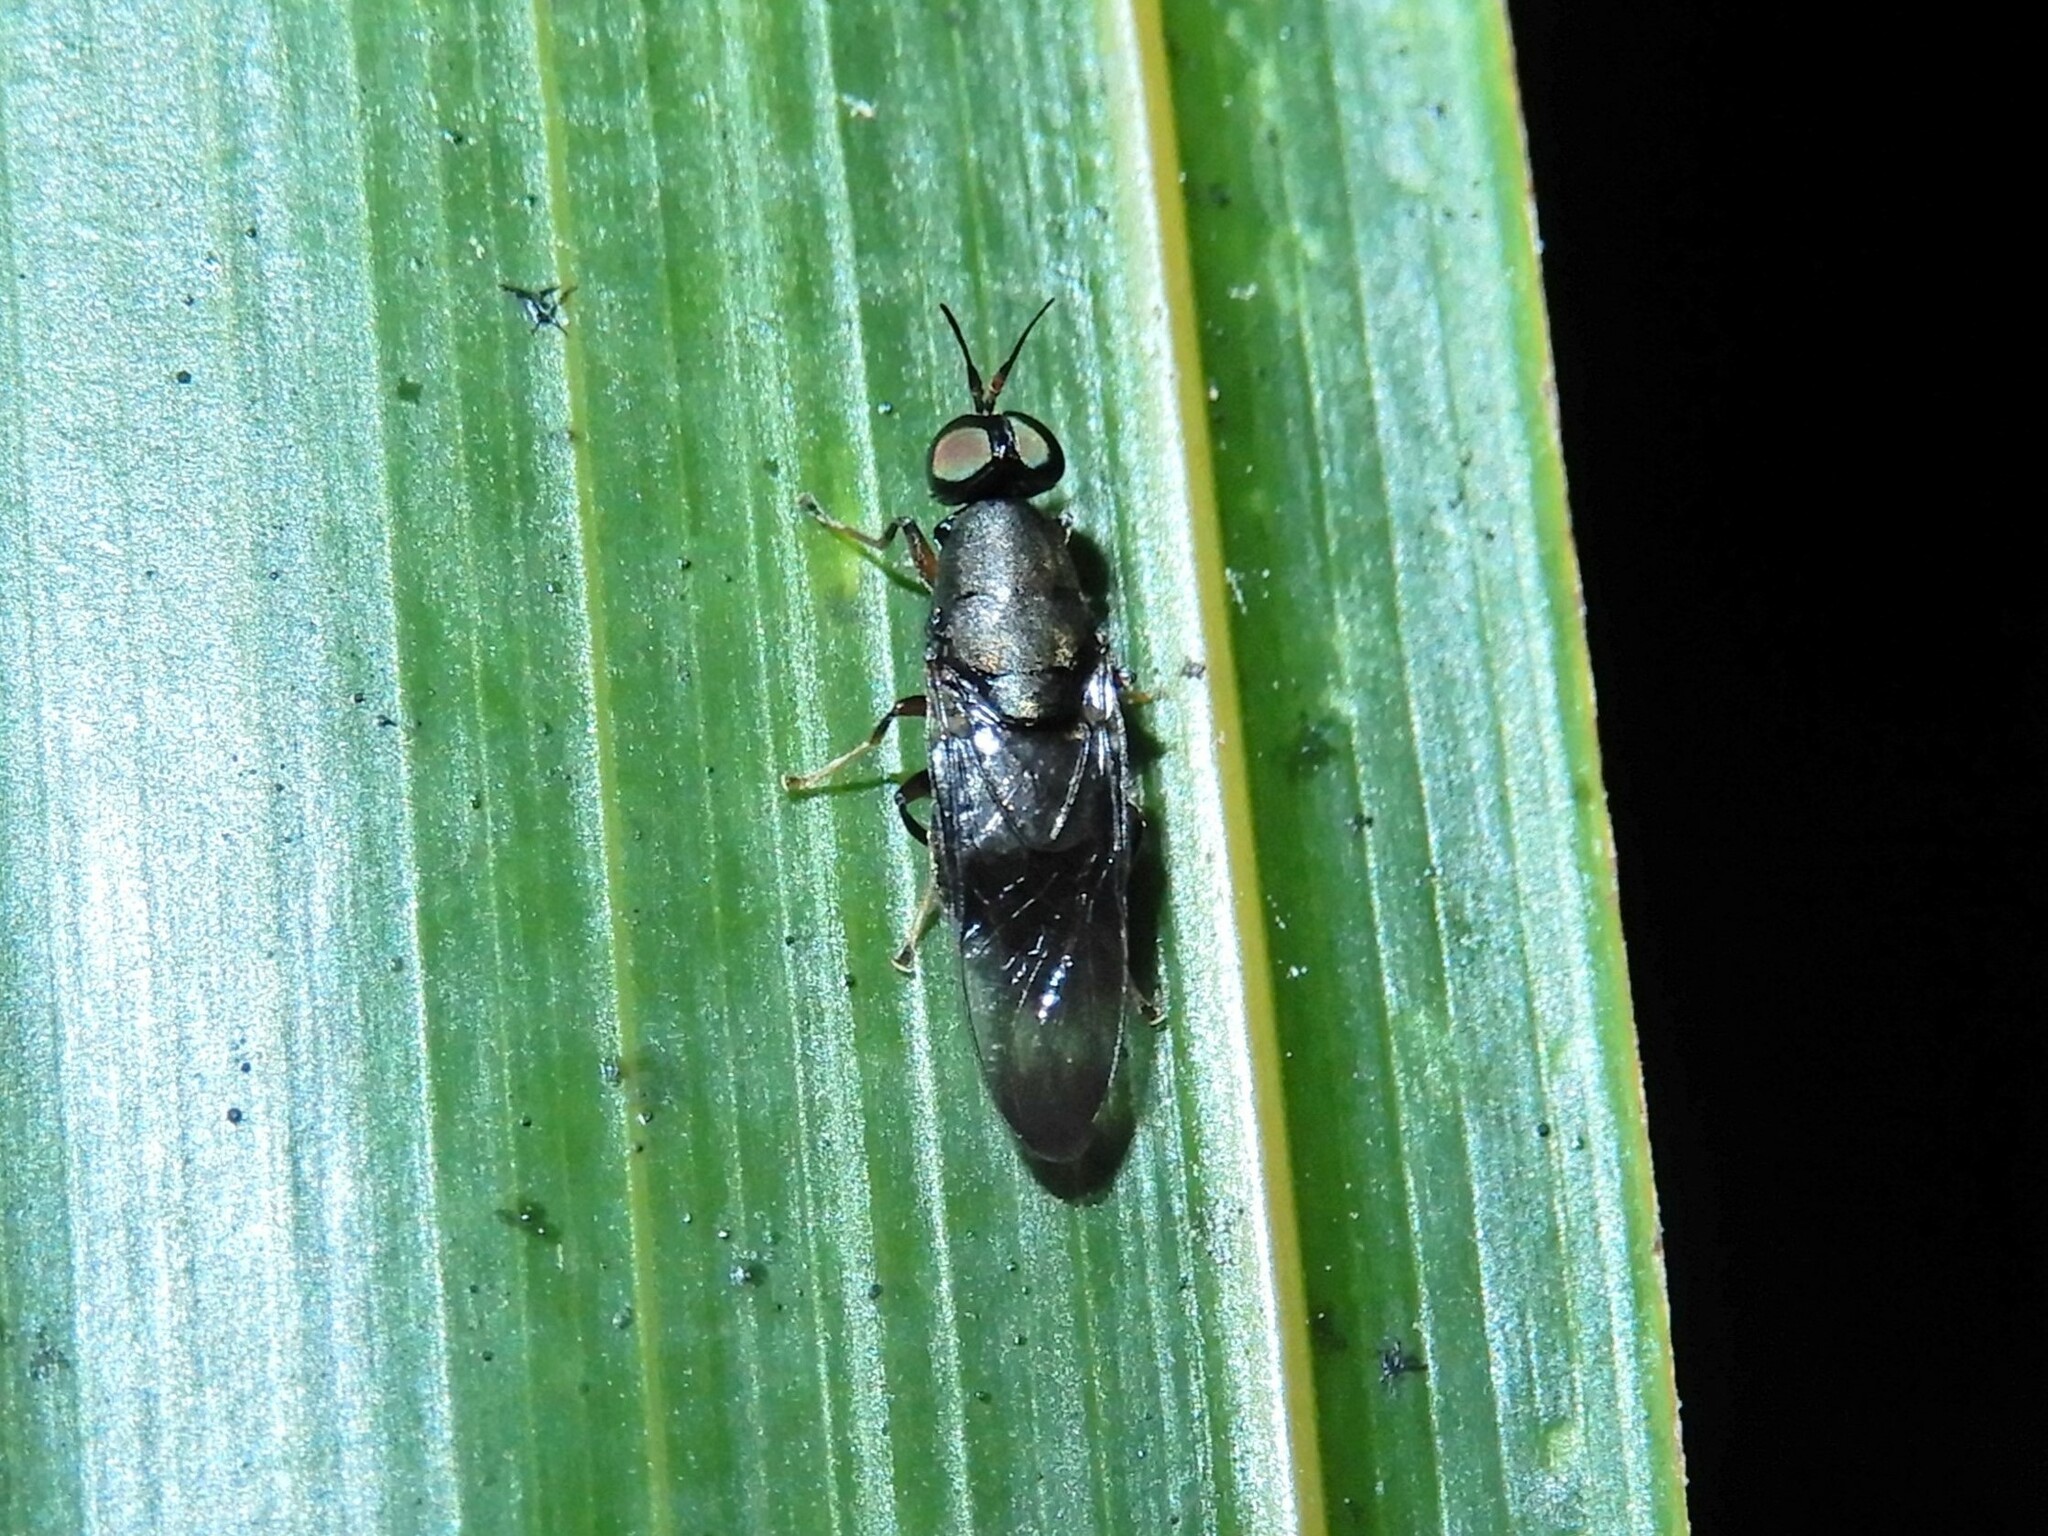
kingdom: Animalia
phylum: Arthropoda
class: Insecta
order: Diptera
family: Stratiomyidae
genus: Dysbiota
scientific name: Dysbiota peregrina
